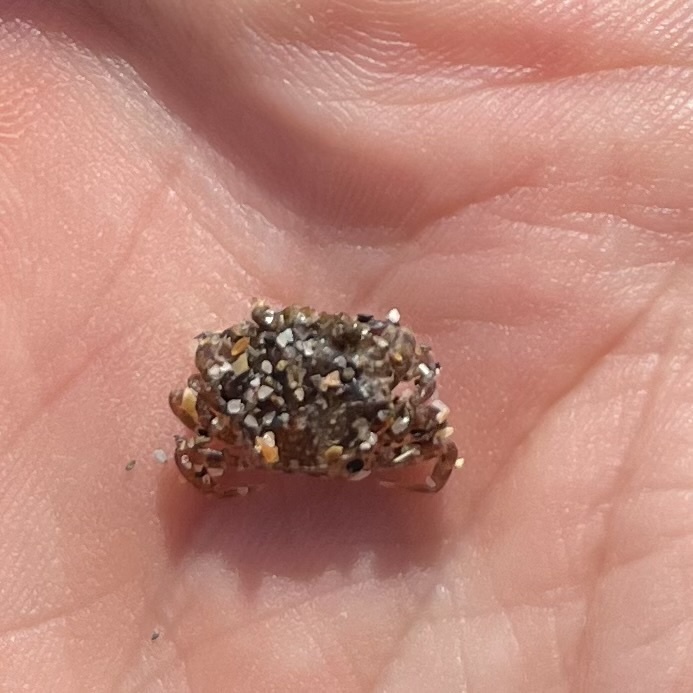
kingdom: Animalia
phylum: Arthropoda
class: Malacostraca
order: Decapoda
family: Carcinidae
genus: Carcinus
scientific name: Carcinus maenas
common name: European green crab
